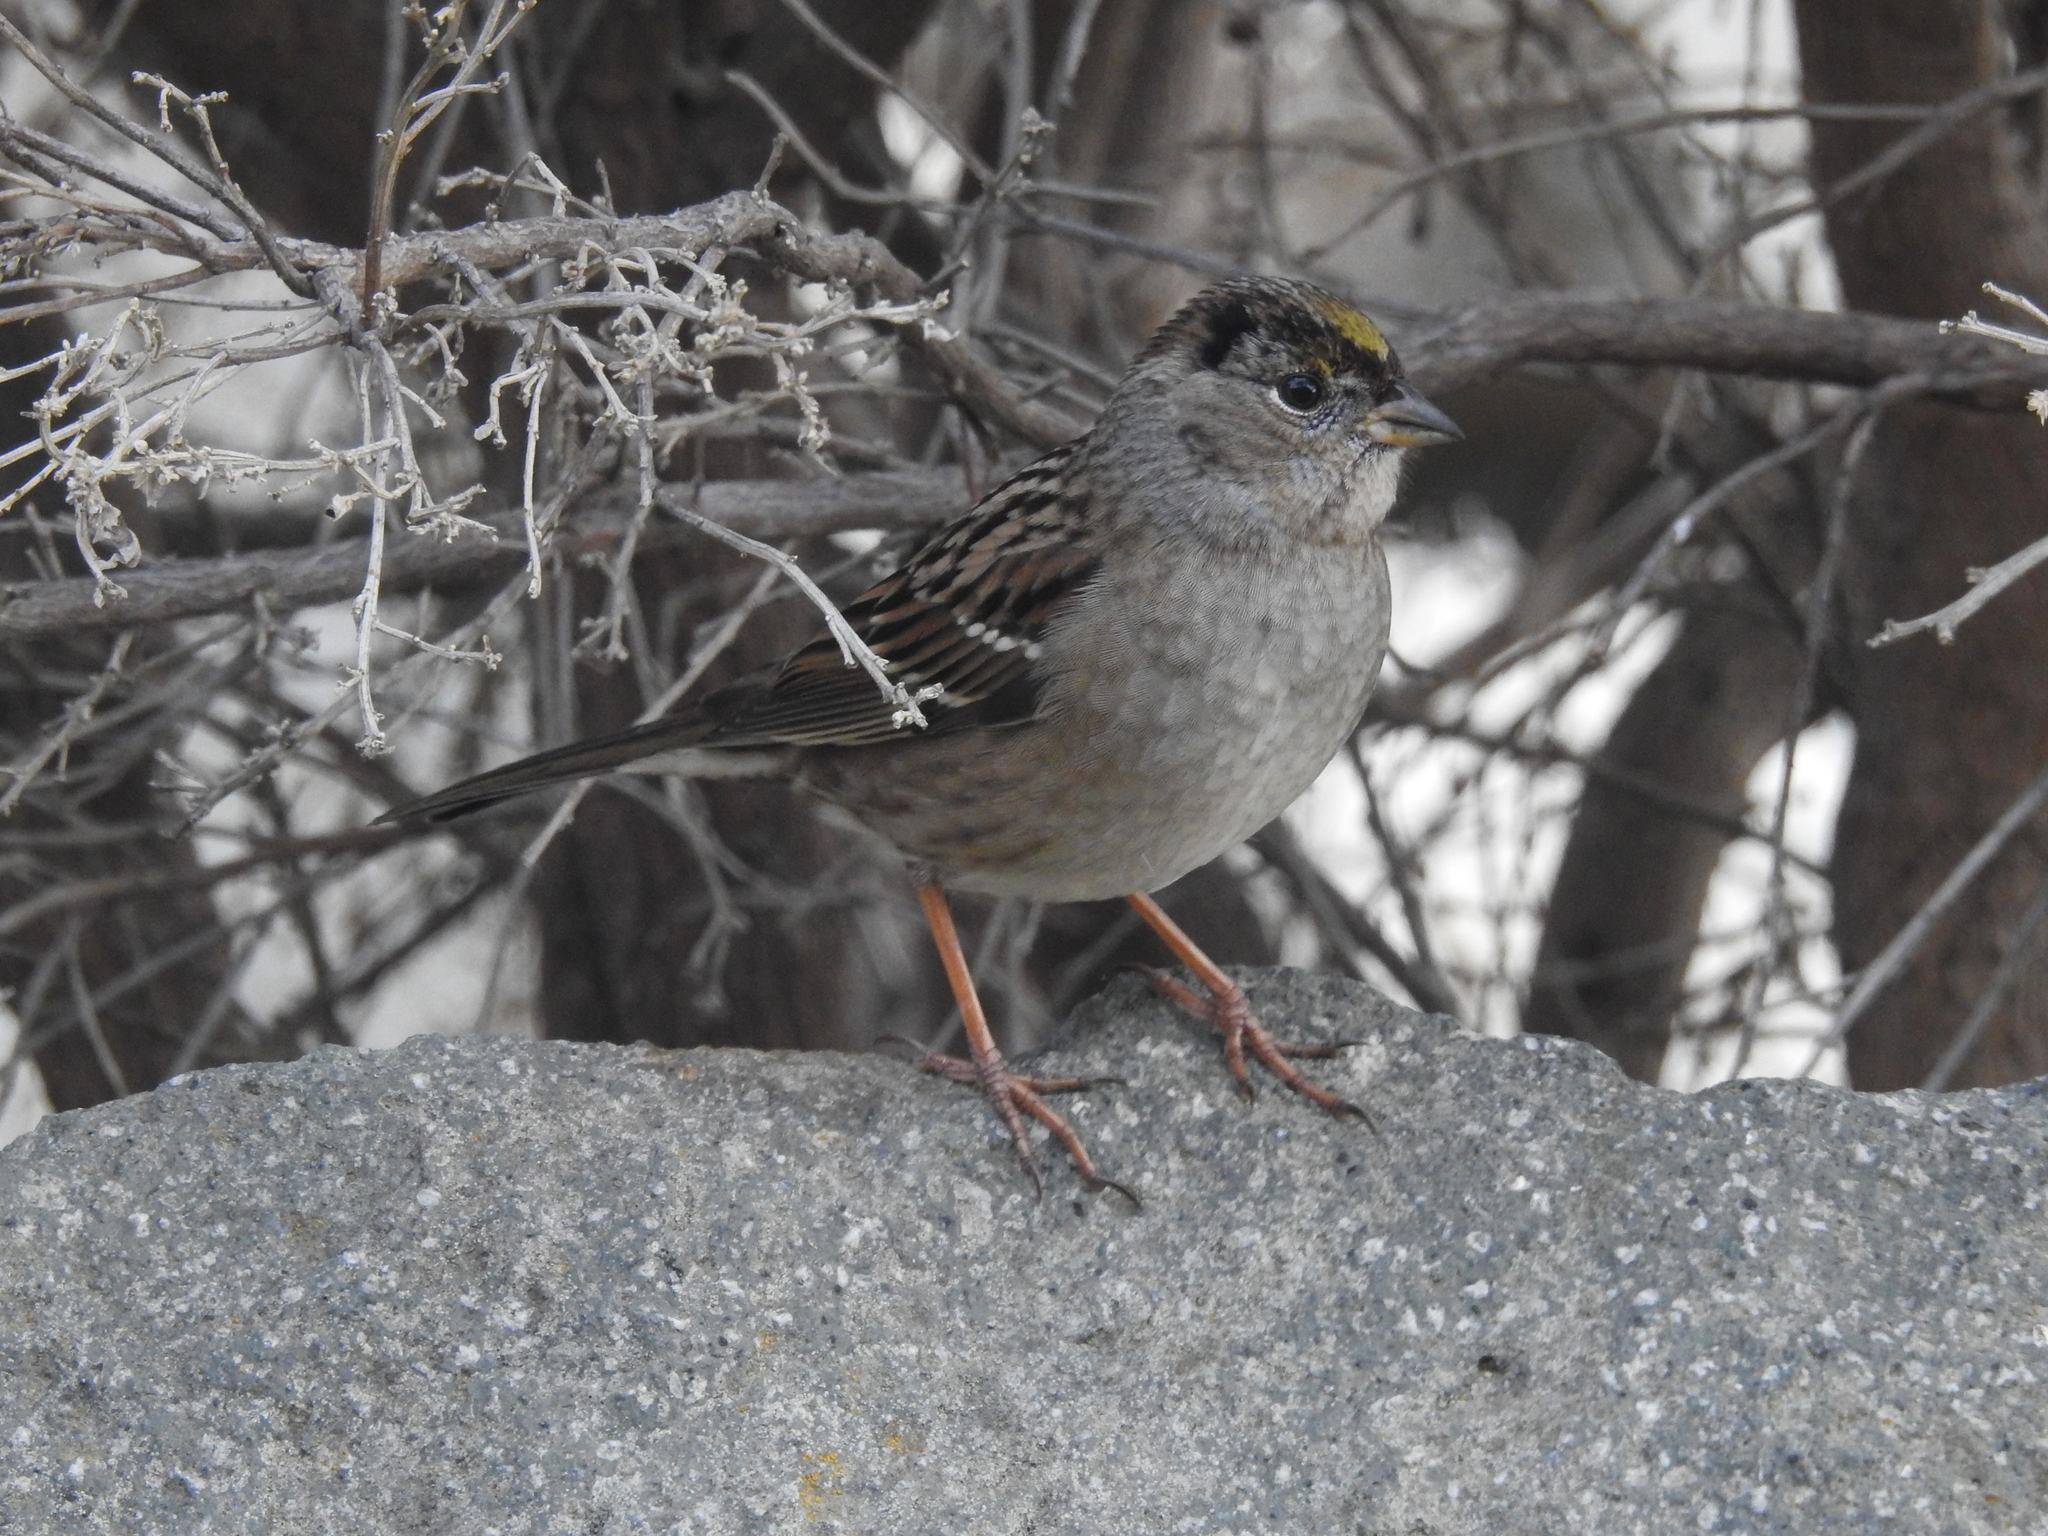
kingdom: Animalia
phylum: Chordata
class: Aves
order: Passeriformes
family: Passerellidae
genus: Zonotrichia
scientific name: Zonotrichia atricapilla
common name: Golden-crowned sparrow
